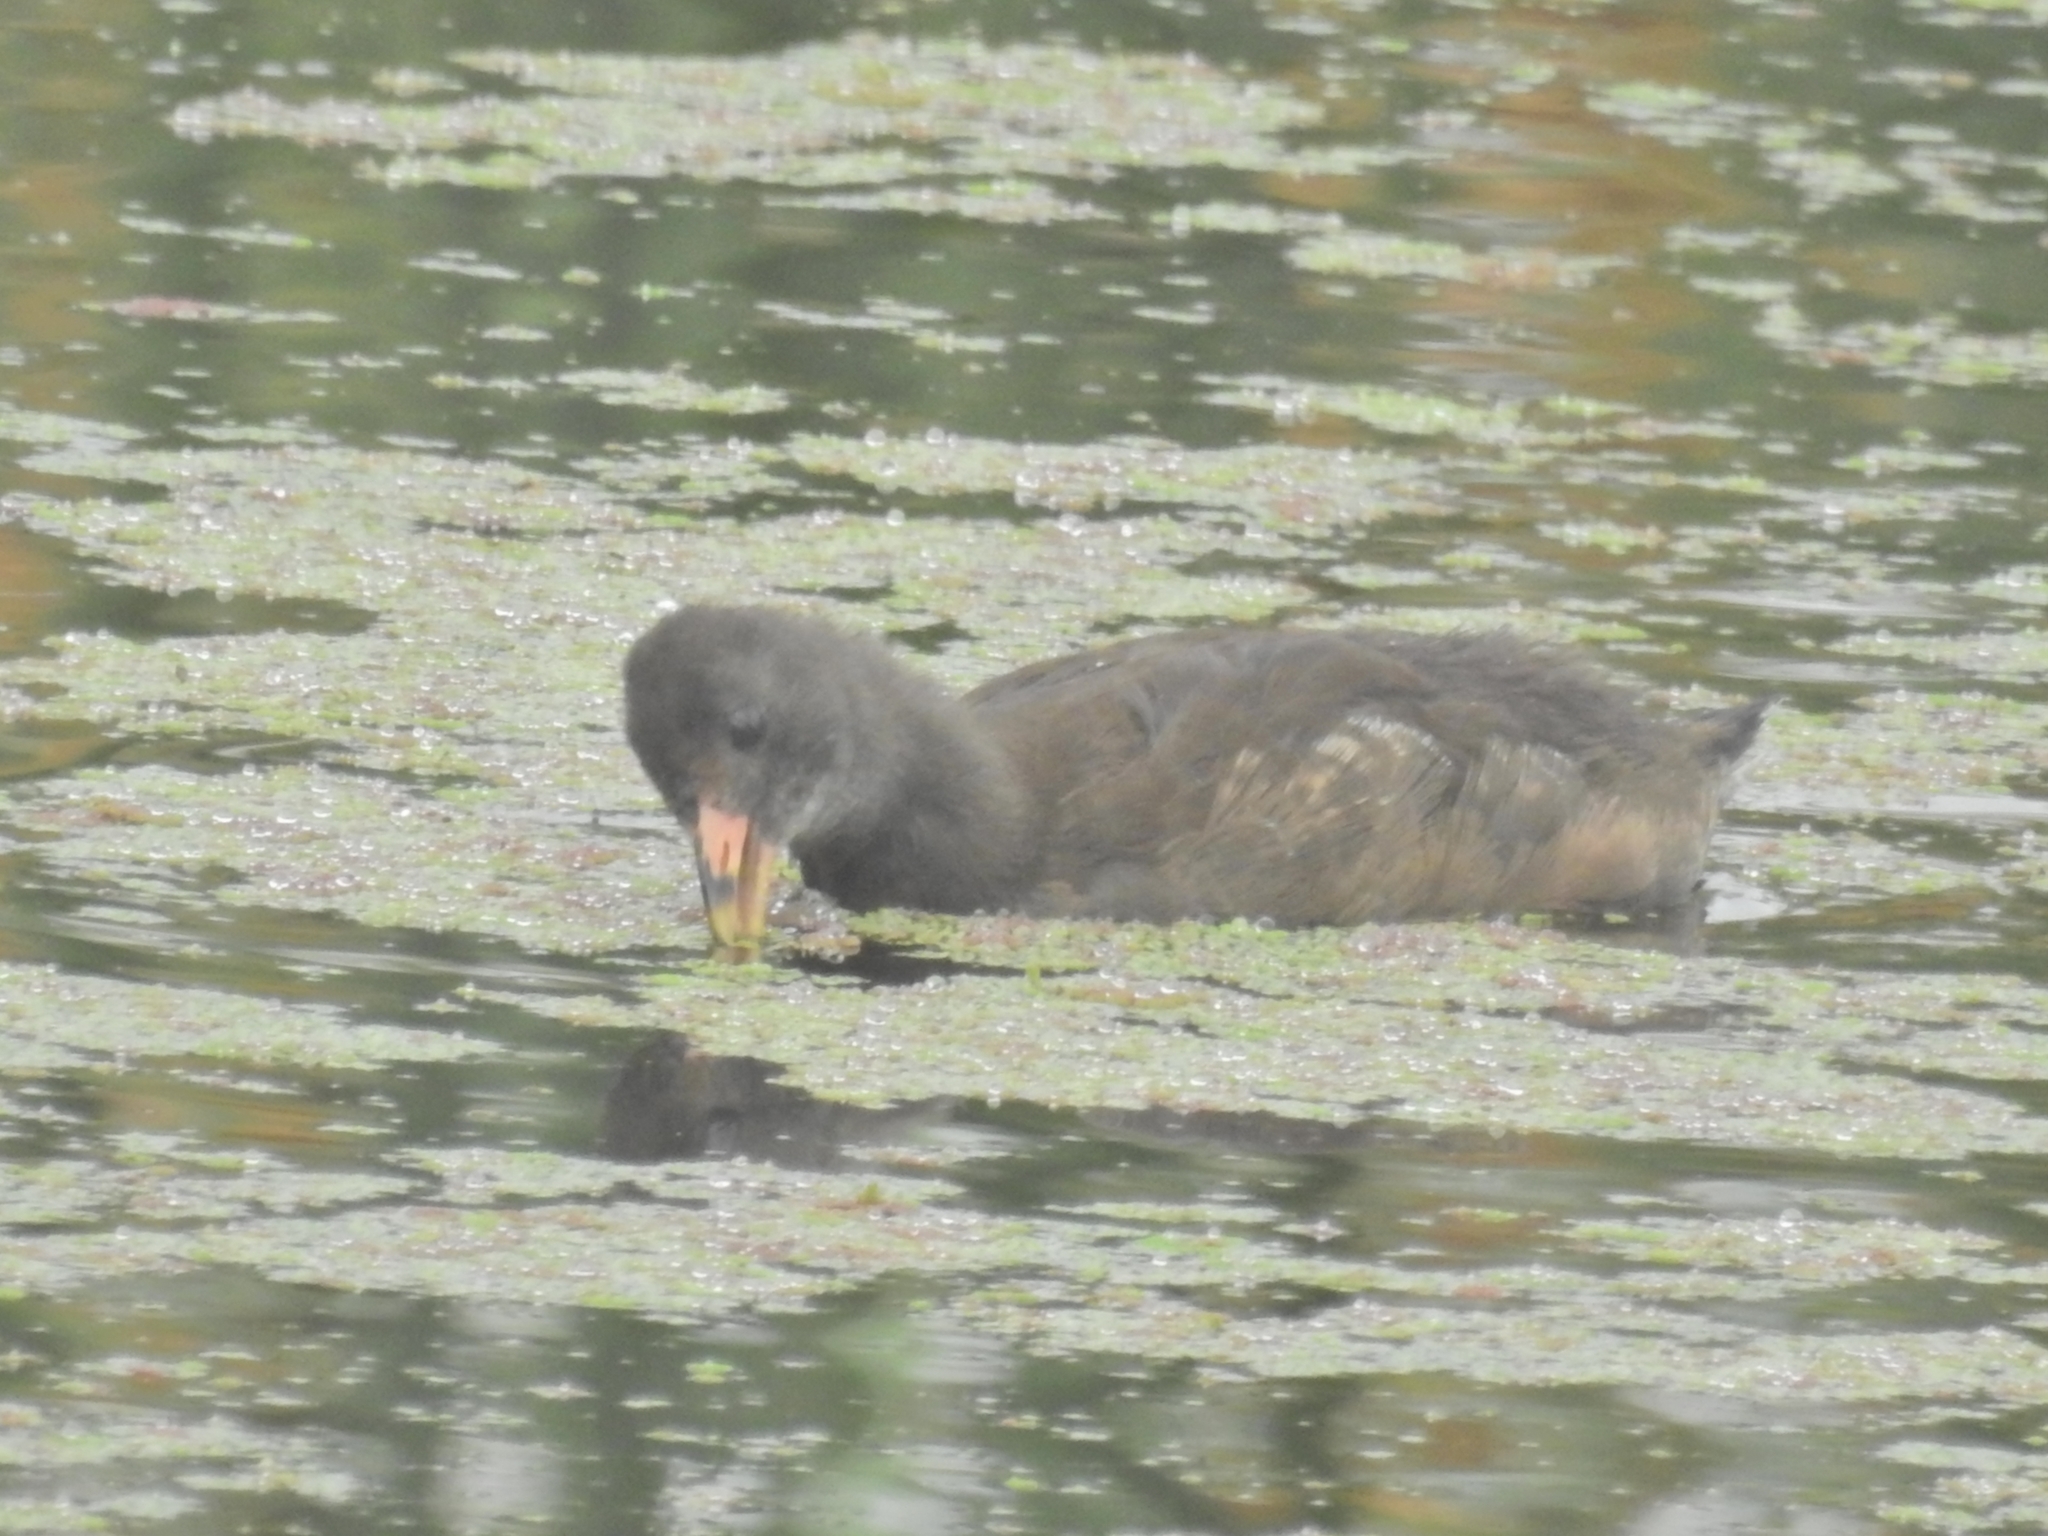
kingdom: Animalia
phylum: Chordata
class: Aves
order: Gruiformes
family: Rallidae
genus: Gallinula
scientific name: Gallinula tenebrosa
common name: Dusky moorhen
